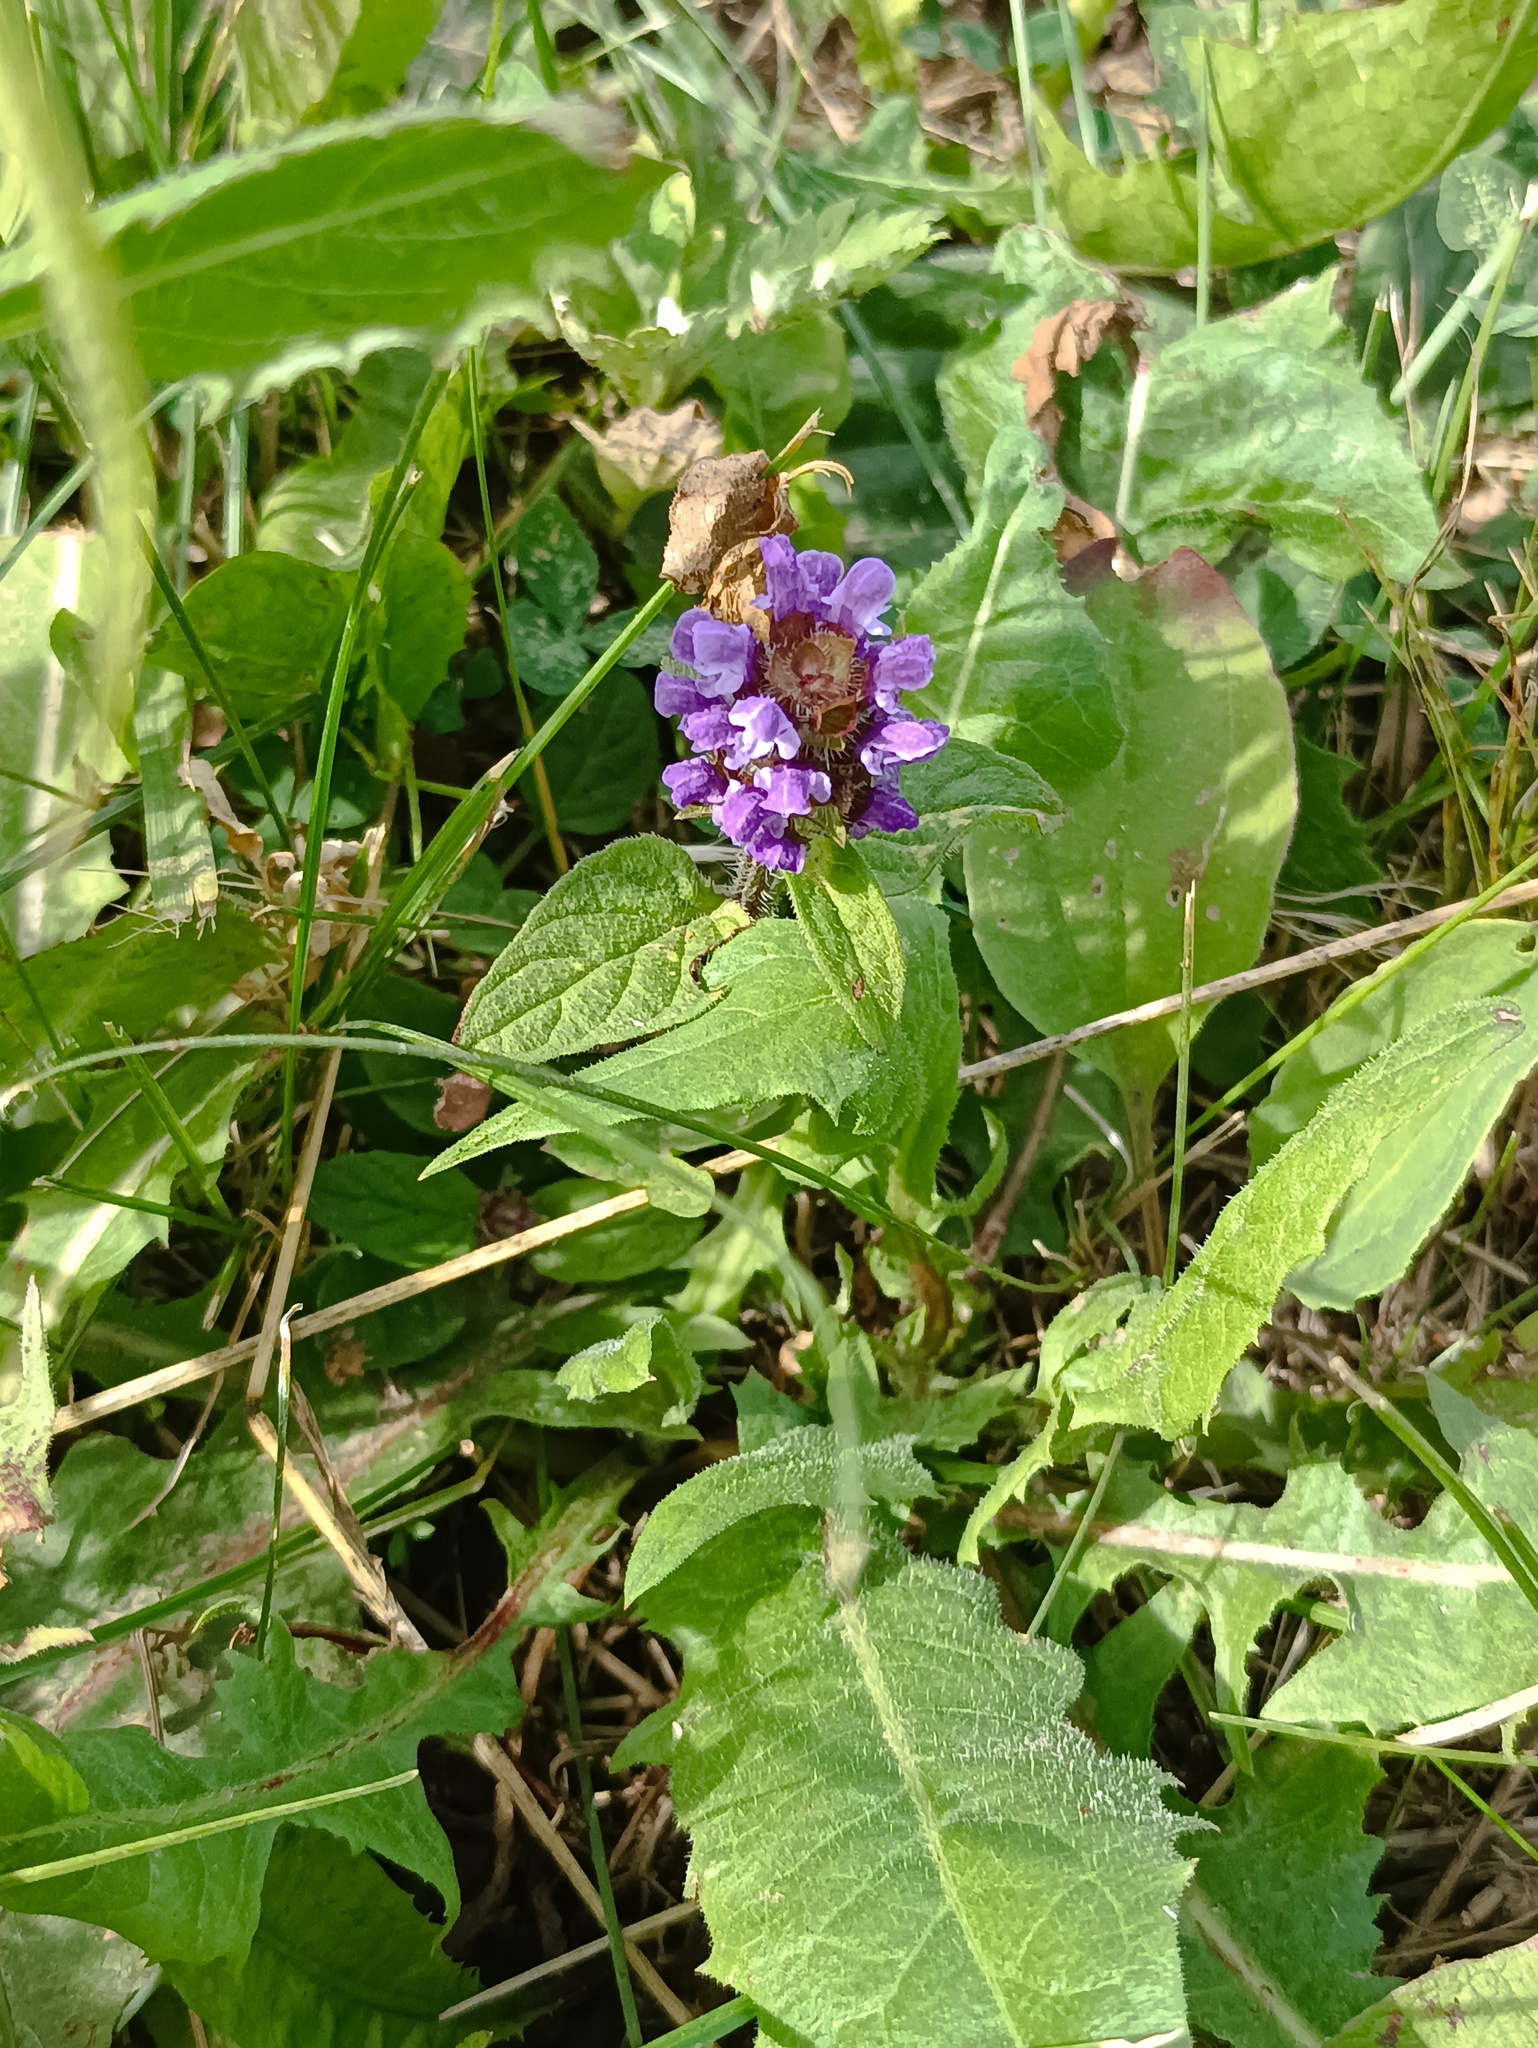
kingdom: Plantae
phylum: Tracheophyta
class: Magnoliopsida
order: Lamiales
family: Lamiaceae
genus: Prunella
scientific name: Prunella vulgaris
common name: Heal-all
